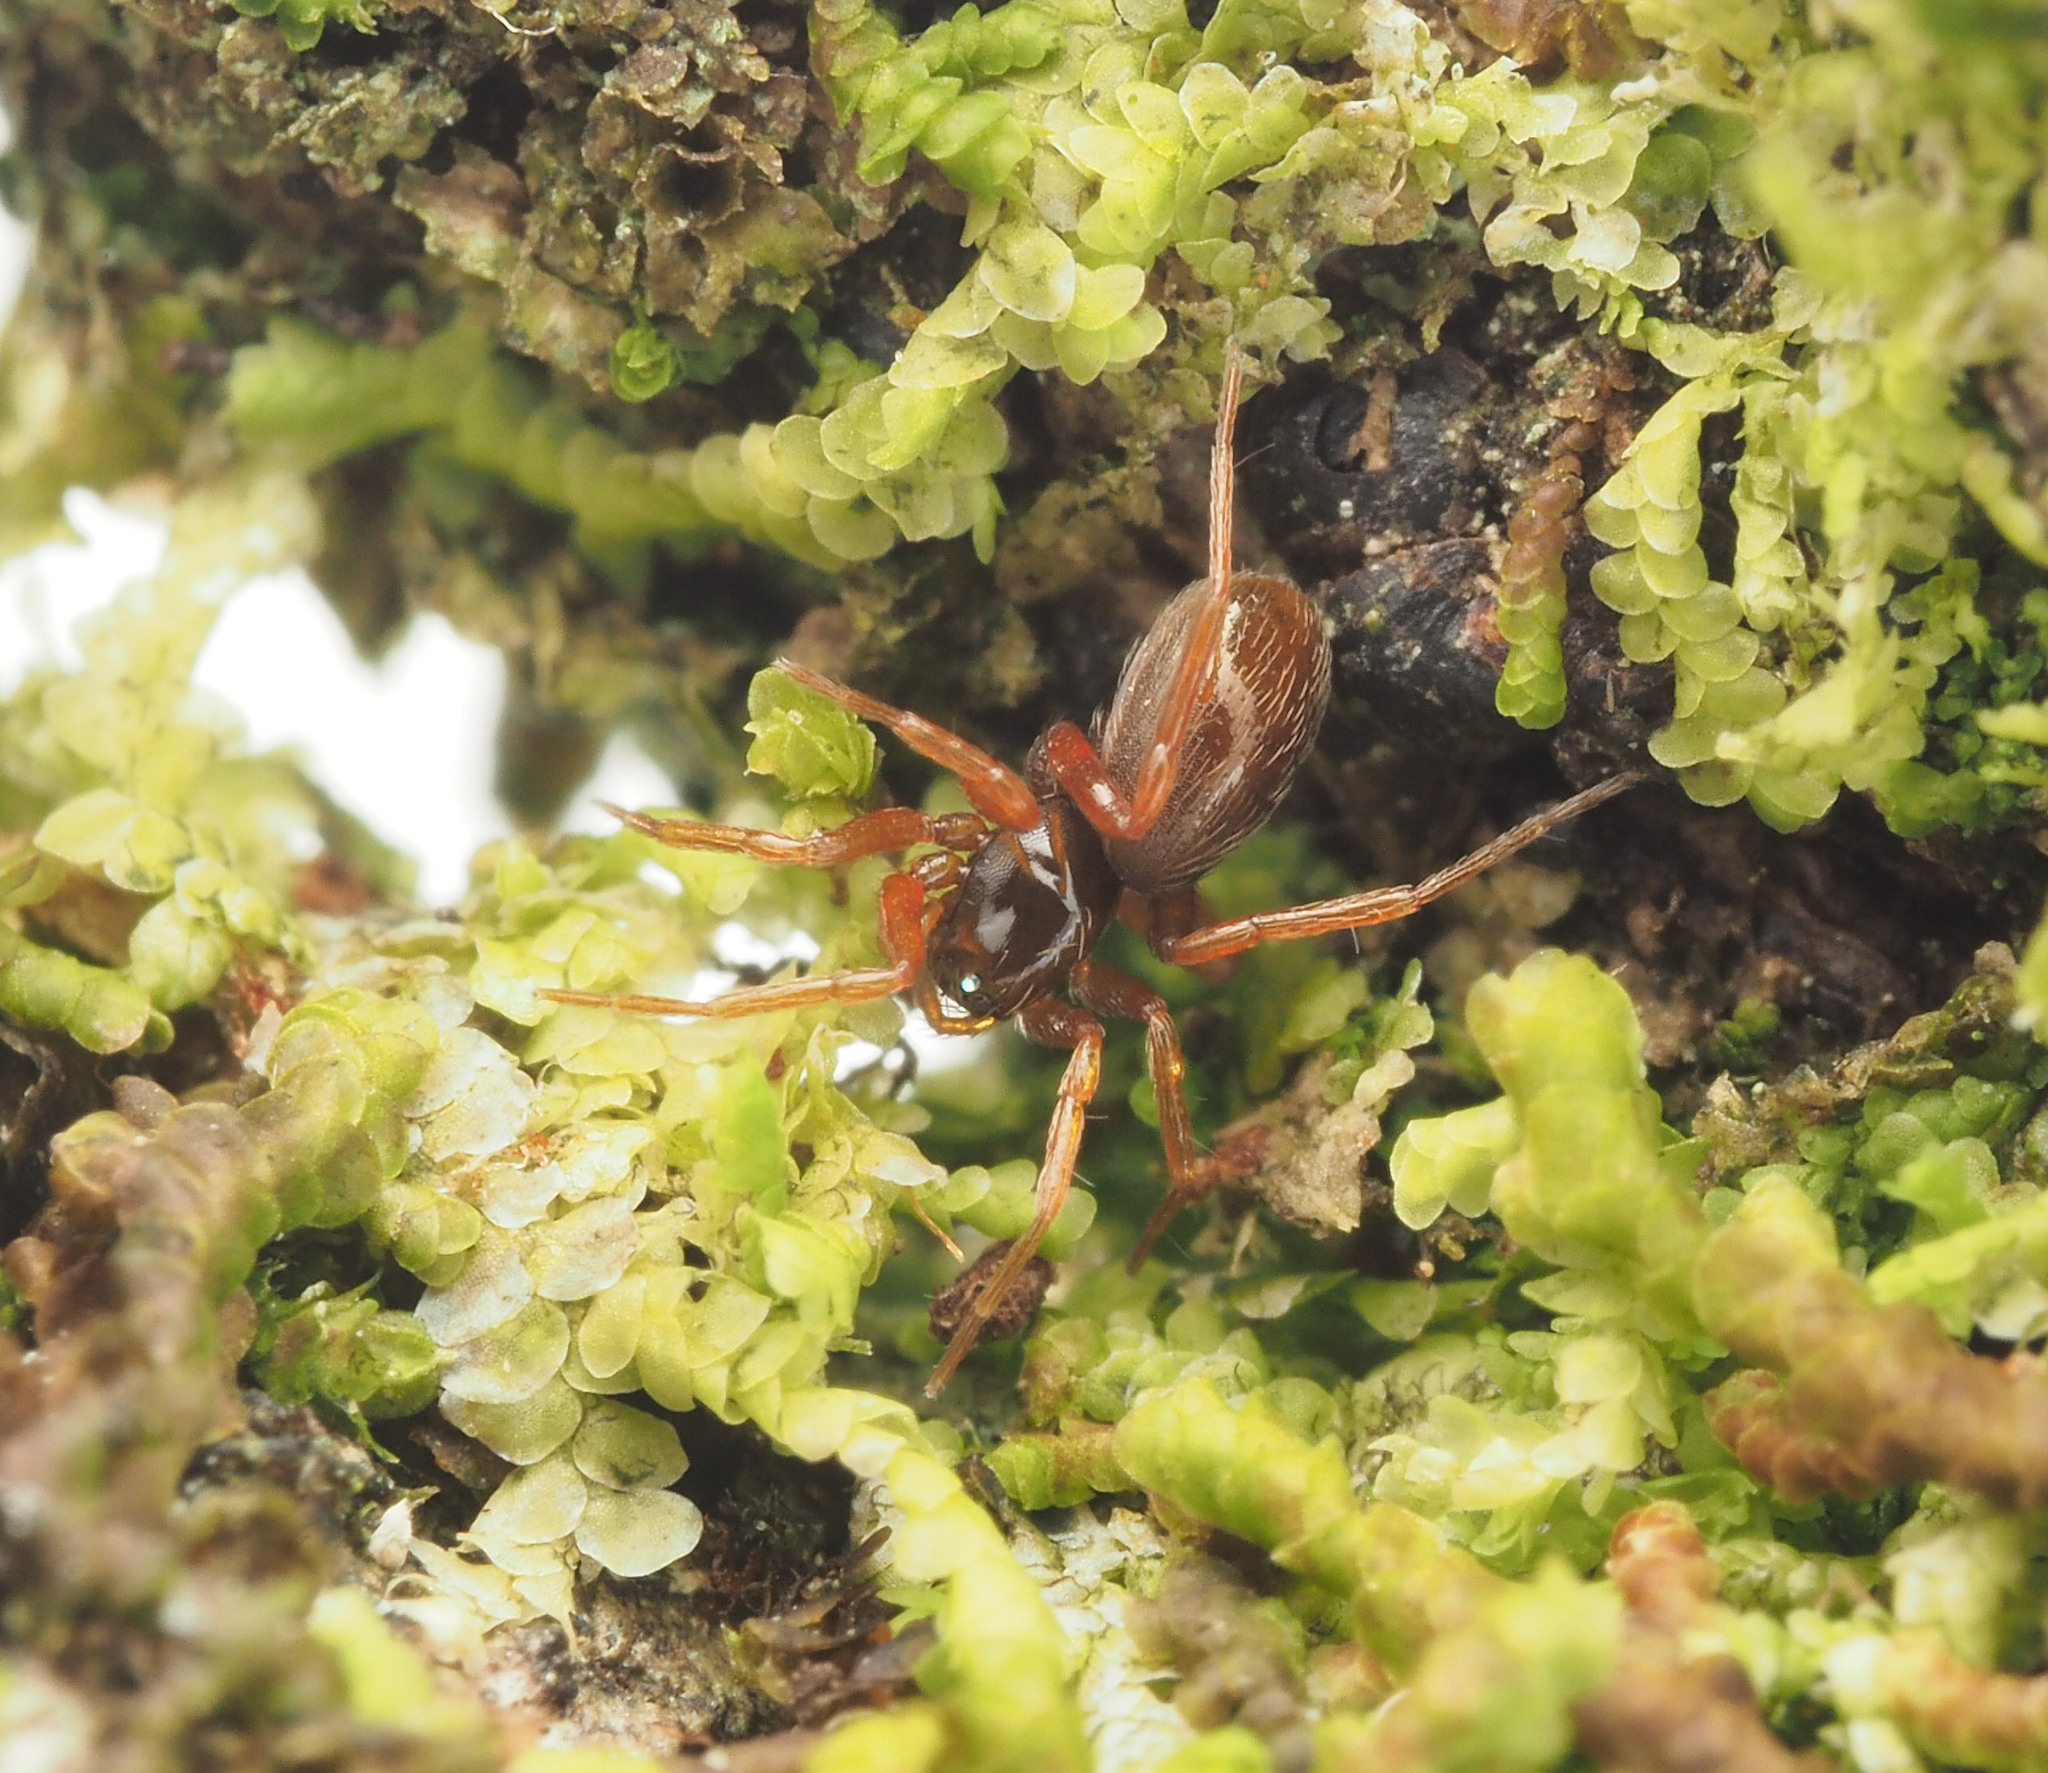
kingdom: Animalia
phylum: Arthropoda
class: Arachnida
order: Araneae
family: Oonopidae
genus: Pelicinus
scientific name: Pelicinus
